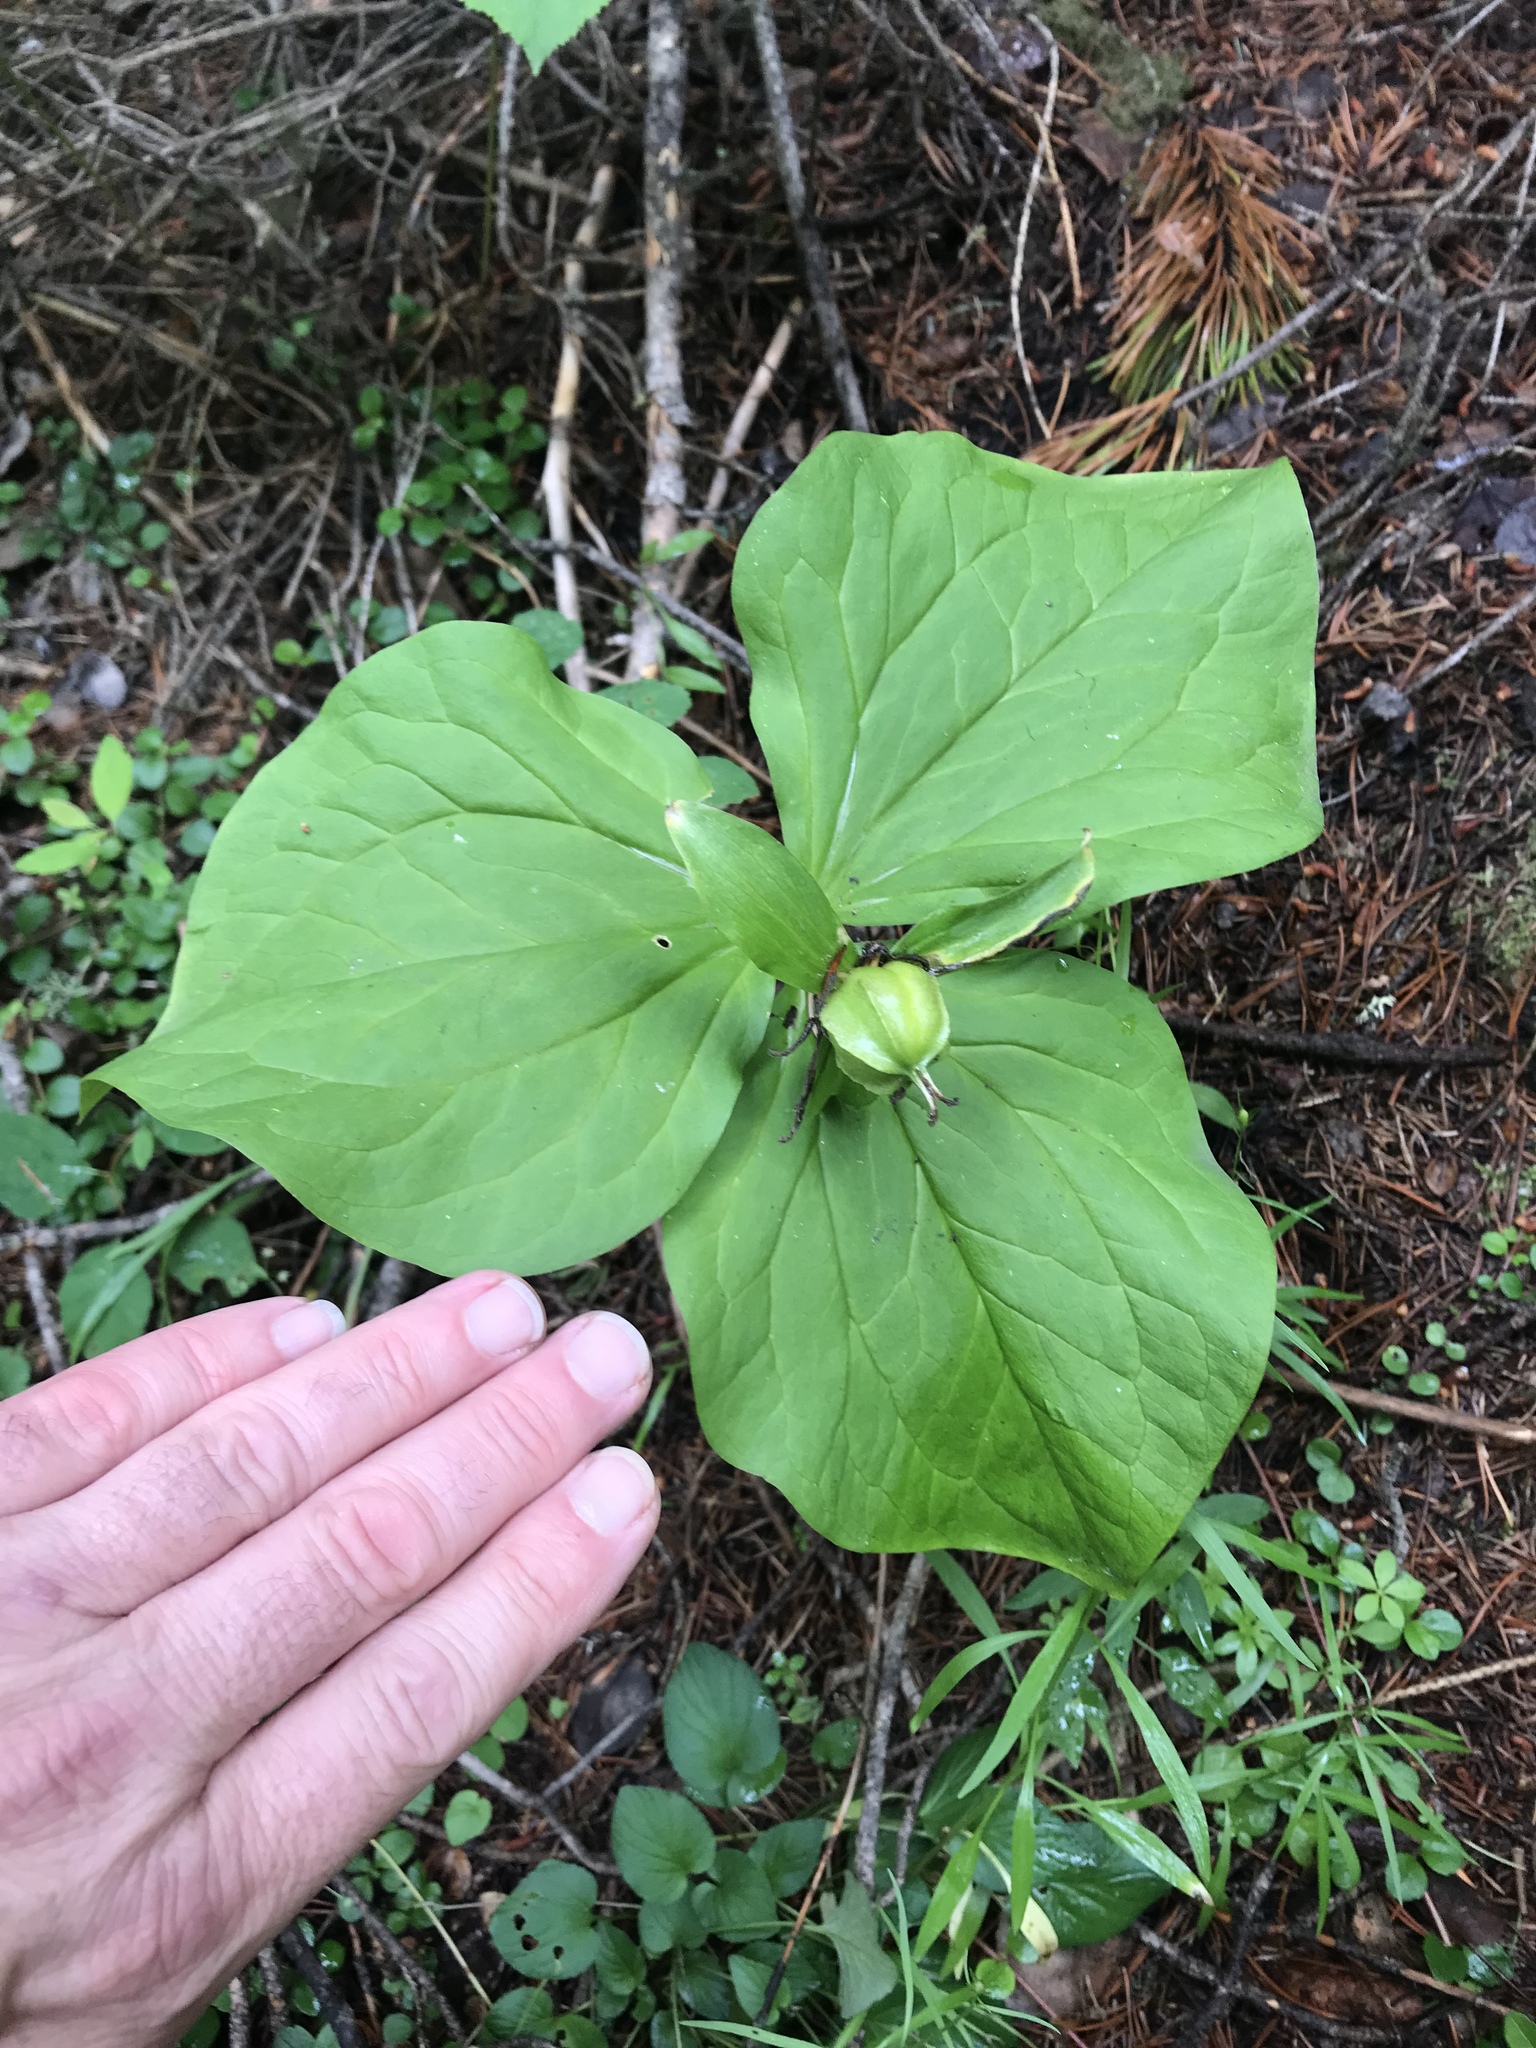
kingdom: Plantae
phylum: Tracheophyta
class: Liliopsida
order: Liliales
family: Melanthiaceae
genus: Trillium
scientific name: Trillium ovatum
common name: Pacific trillium
